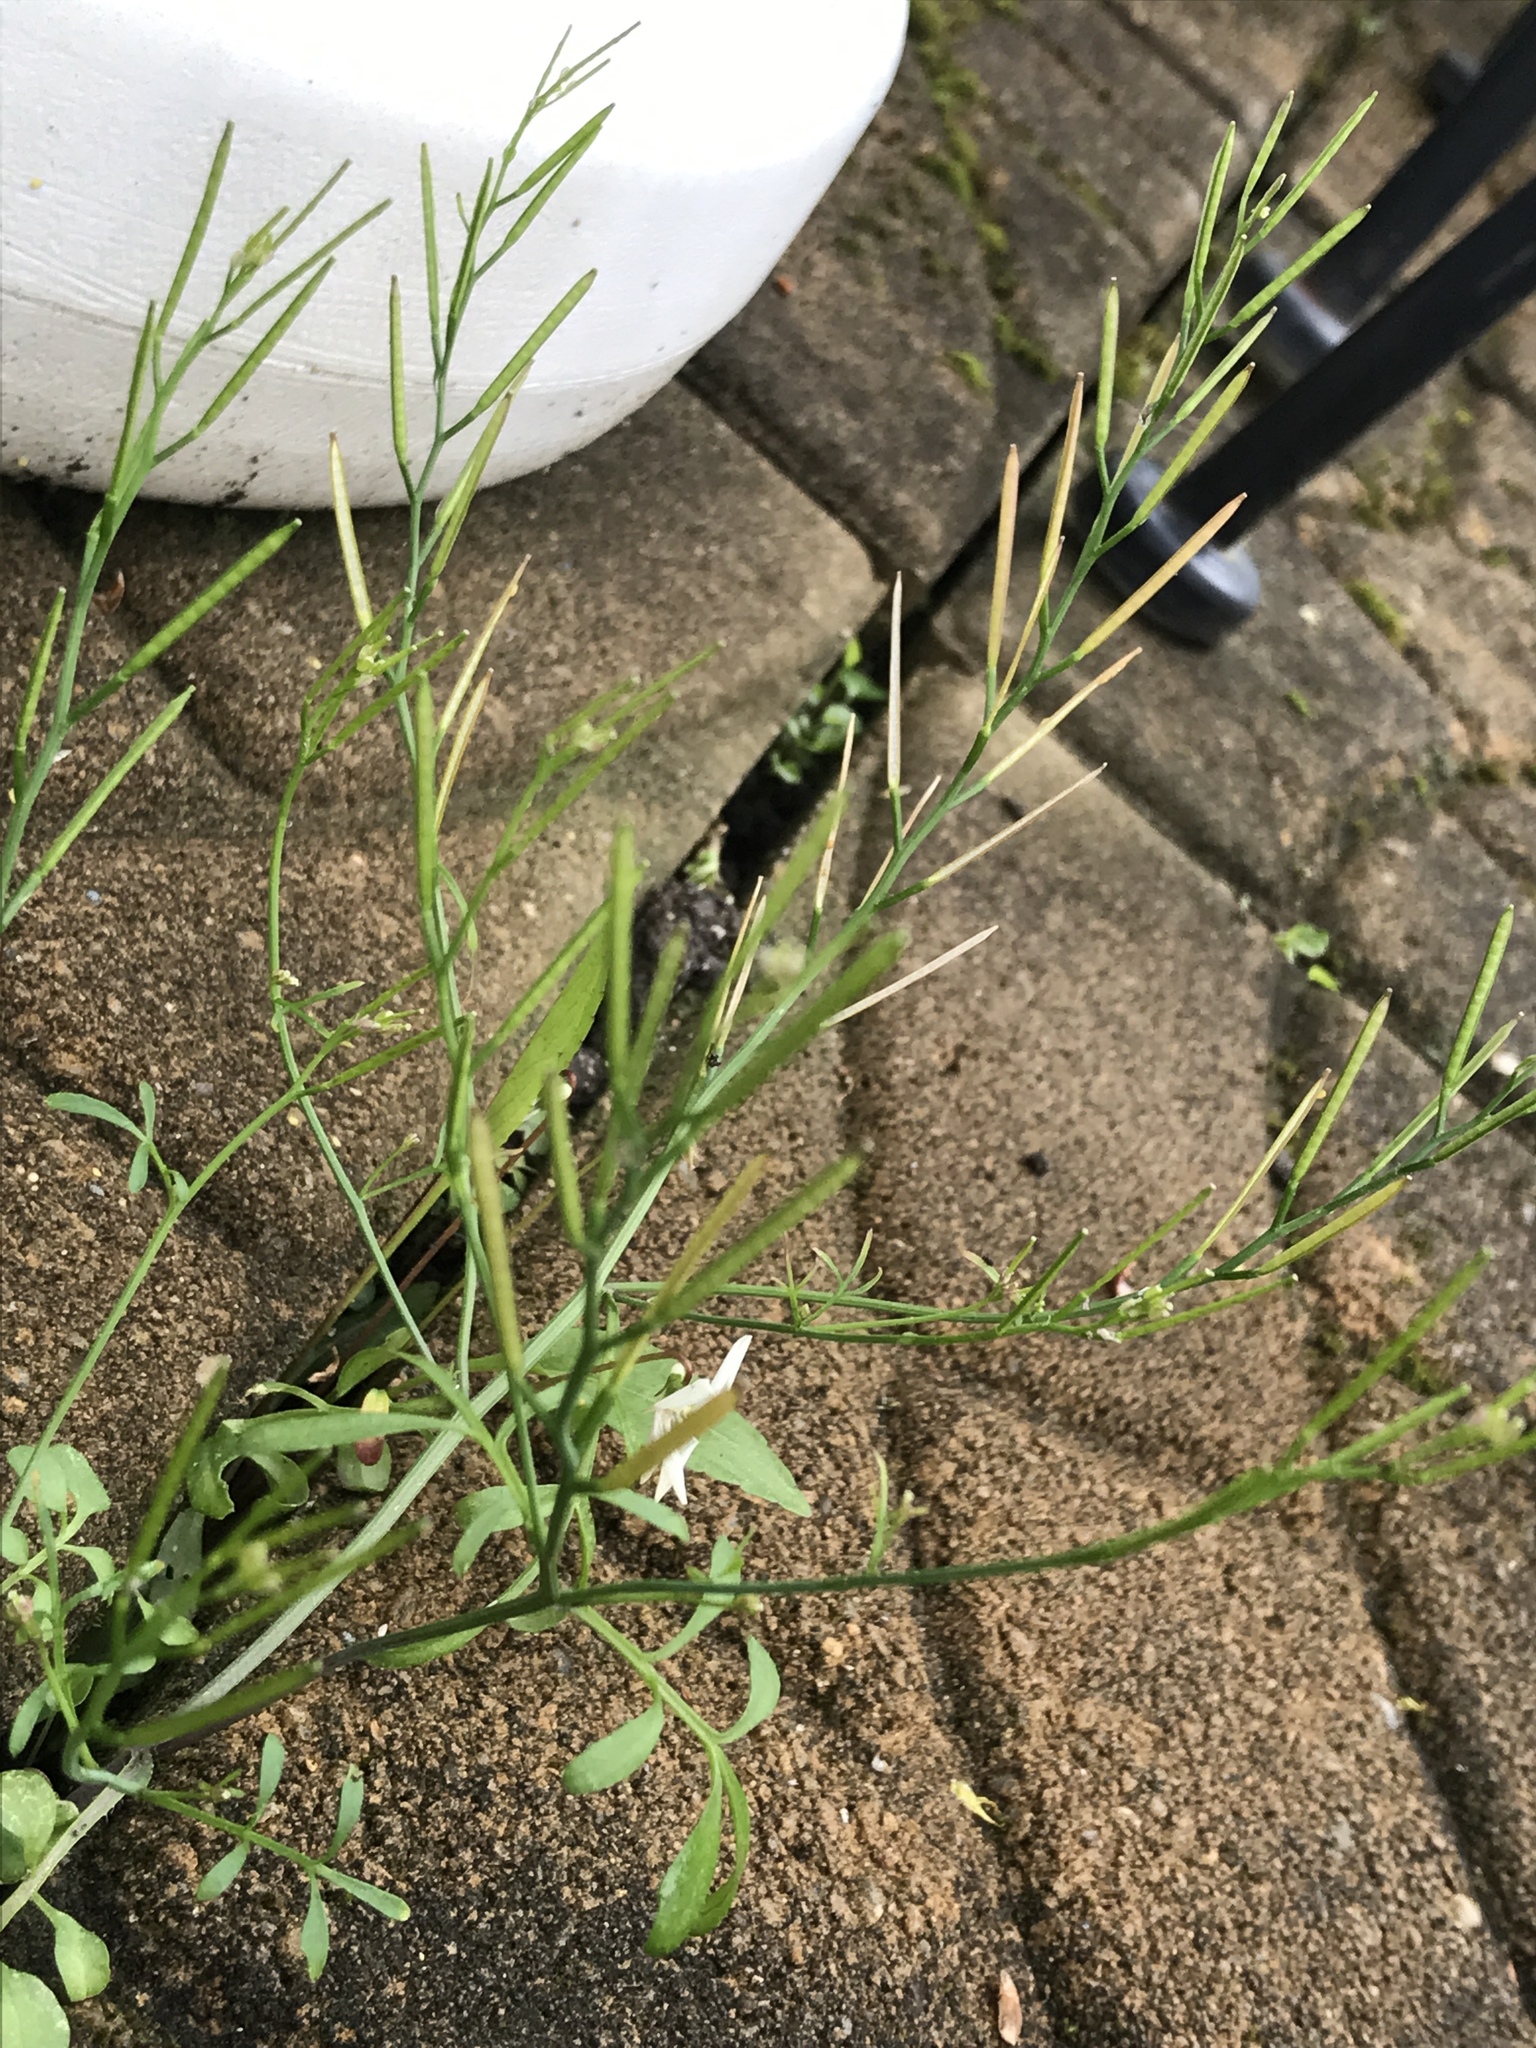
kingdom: Plantae
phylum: Tracheophyta
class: Magnoliopsida
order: Brassicales
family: Brassicaceae
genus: Cardamine
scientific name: Cardamine hirsuta
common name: Hairy bittercress
